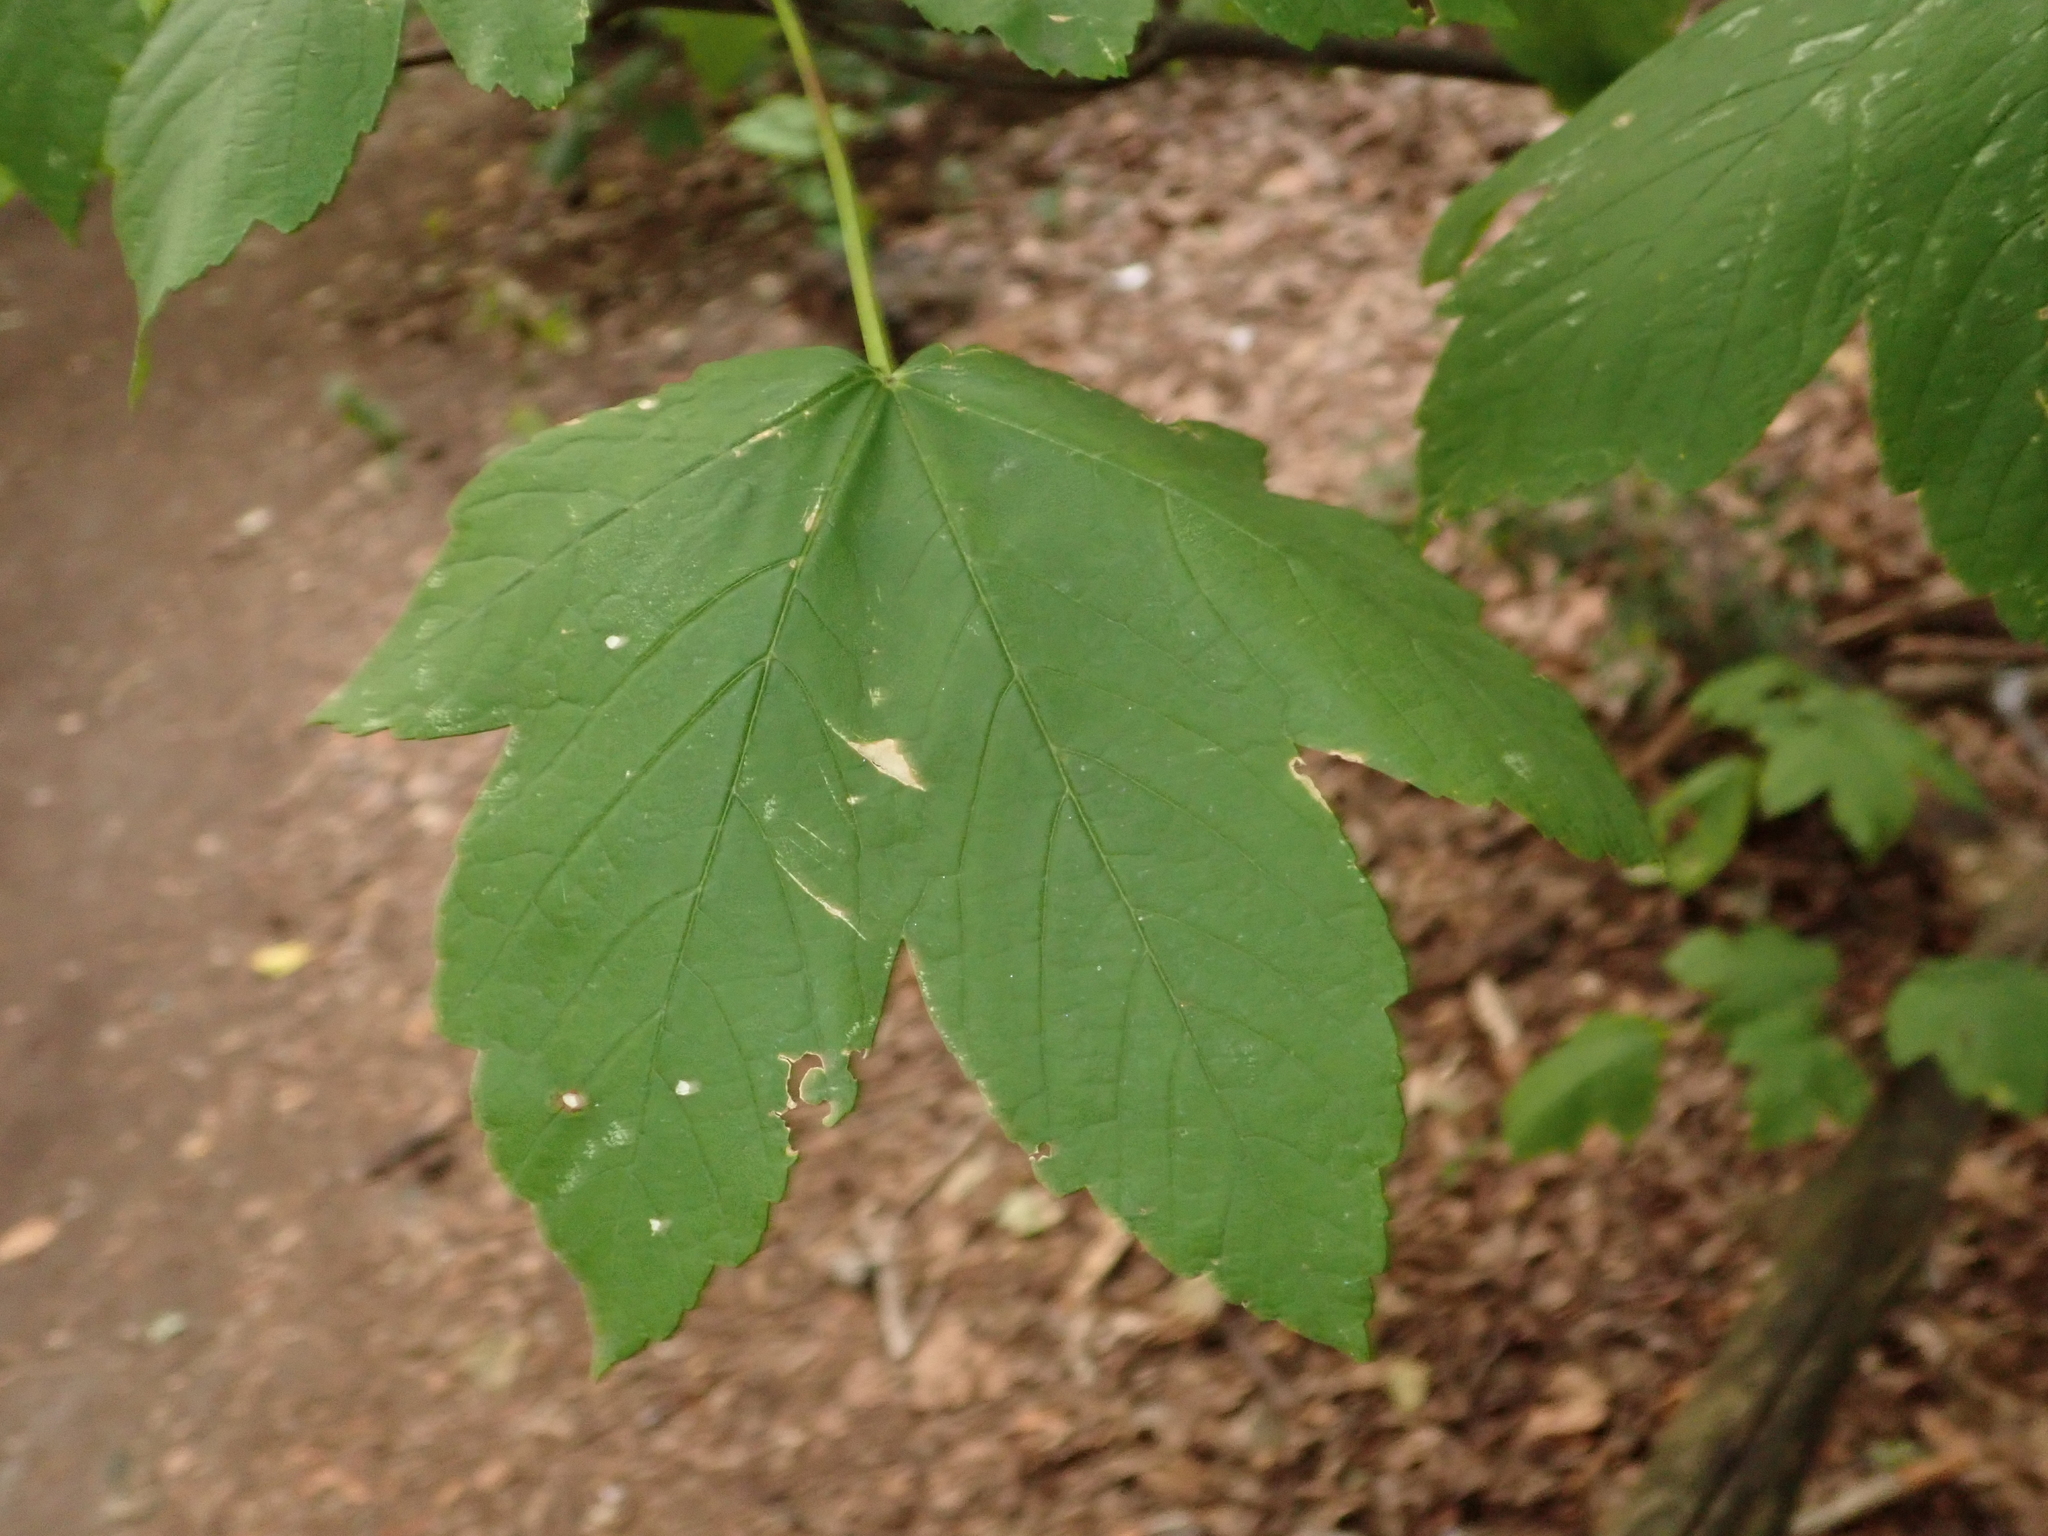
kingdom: Plantae
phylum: Tracheophyta
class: Magnoliopsida
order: Sapindales
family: Sapindaceae
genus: Acer
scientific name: Acer pseudoplatanus
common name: Sycamore
